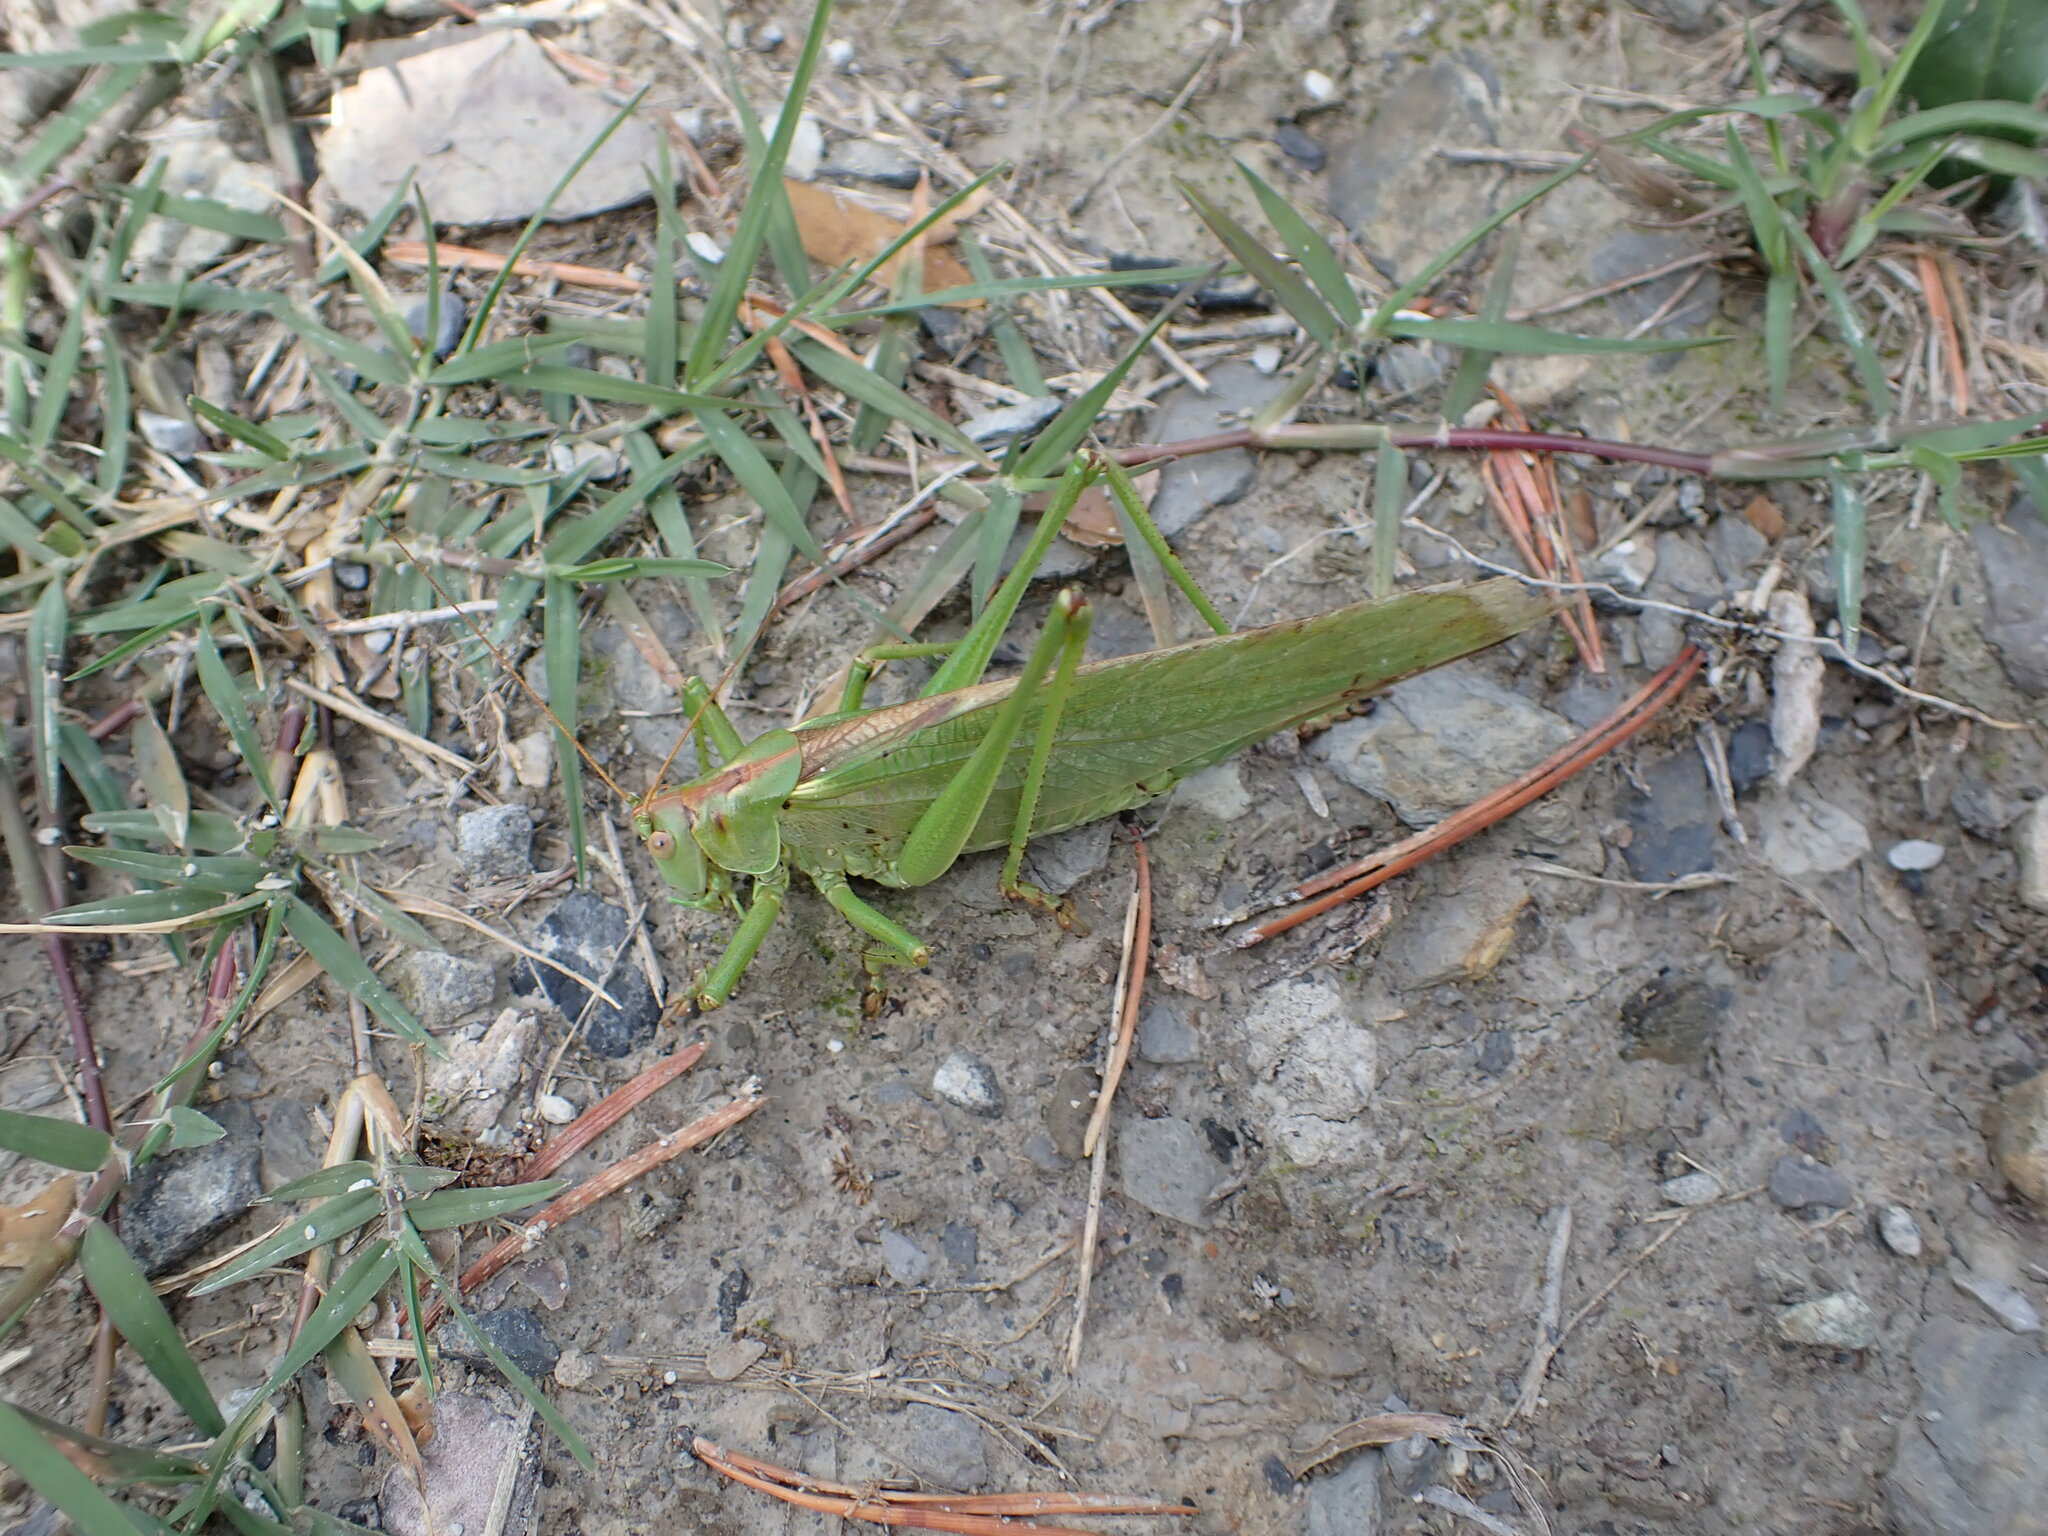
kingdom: Animalia
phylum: Arthropoda
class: Insecta
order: Orthoptera
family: Tettigoniidae
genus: Tettigonia
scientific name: Tettigonia viridissima
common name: Great green bush-cricket
